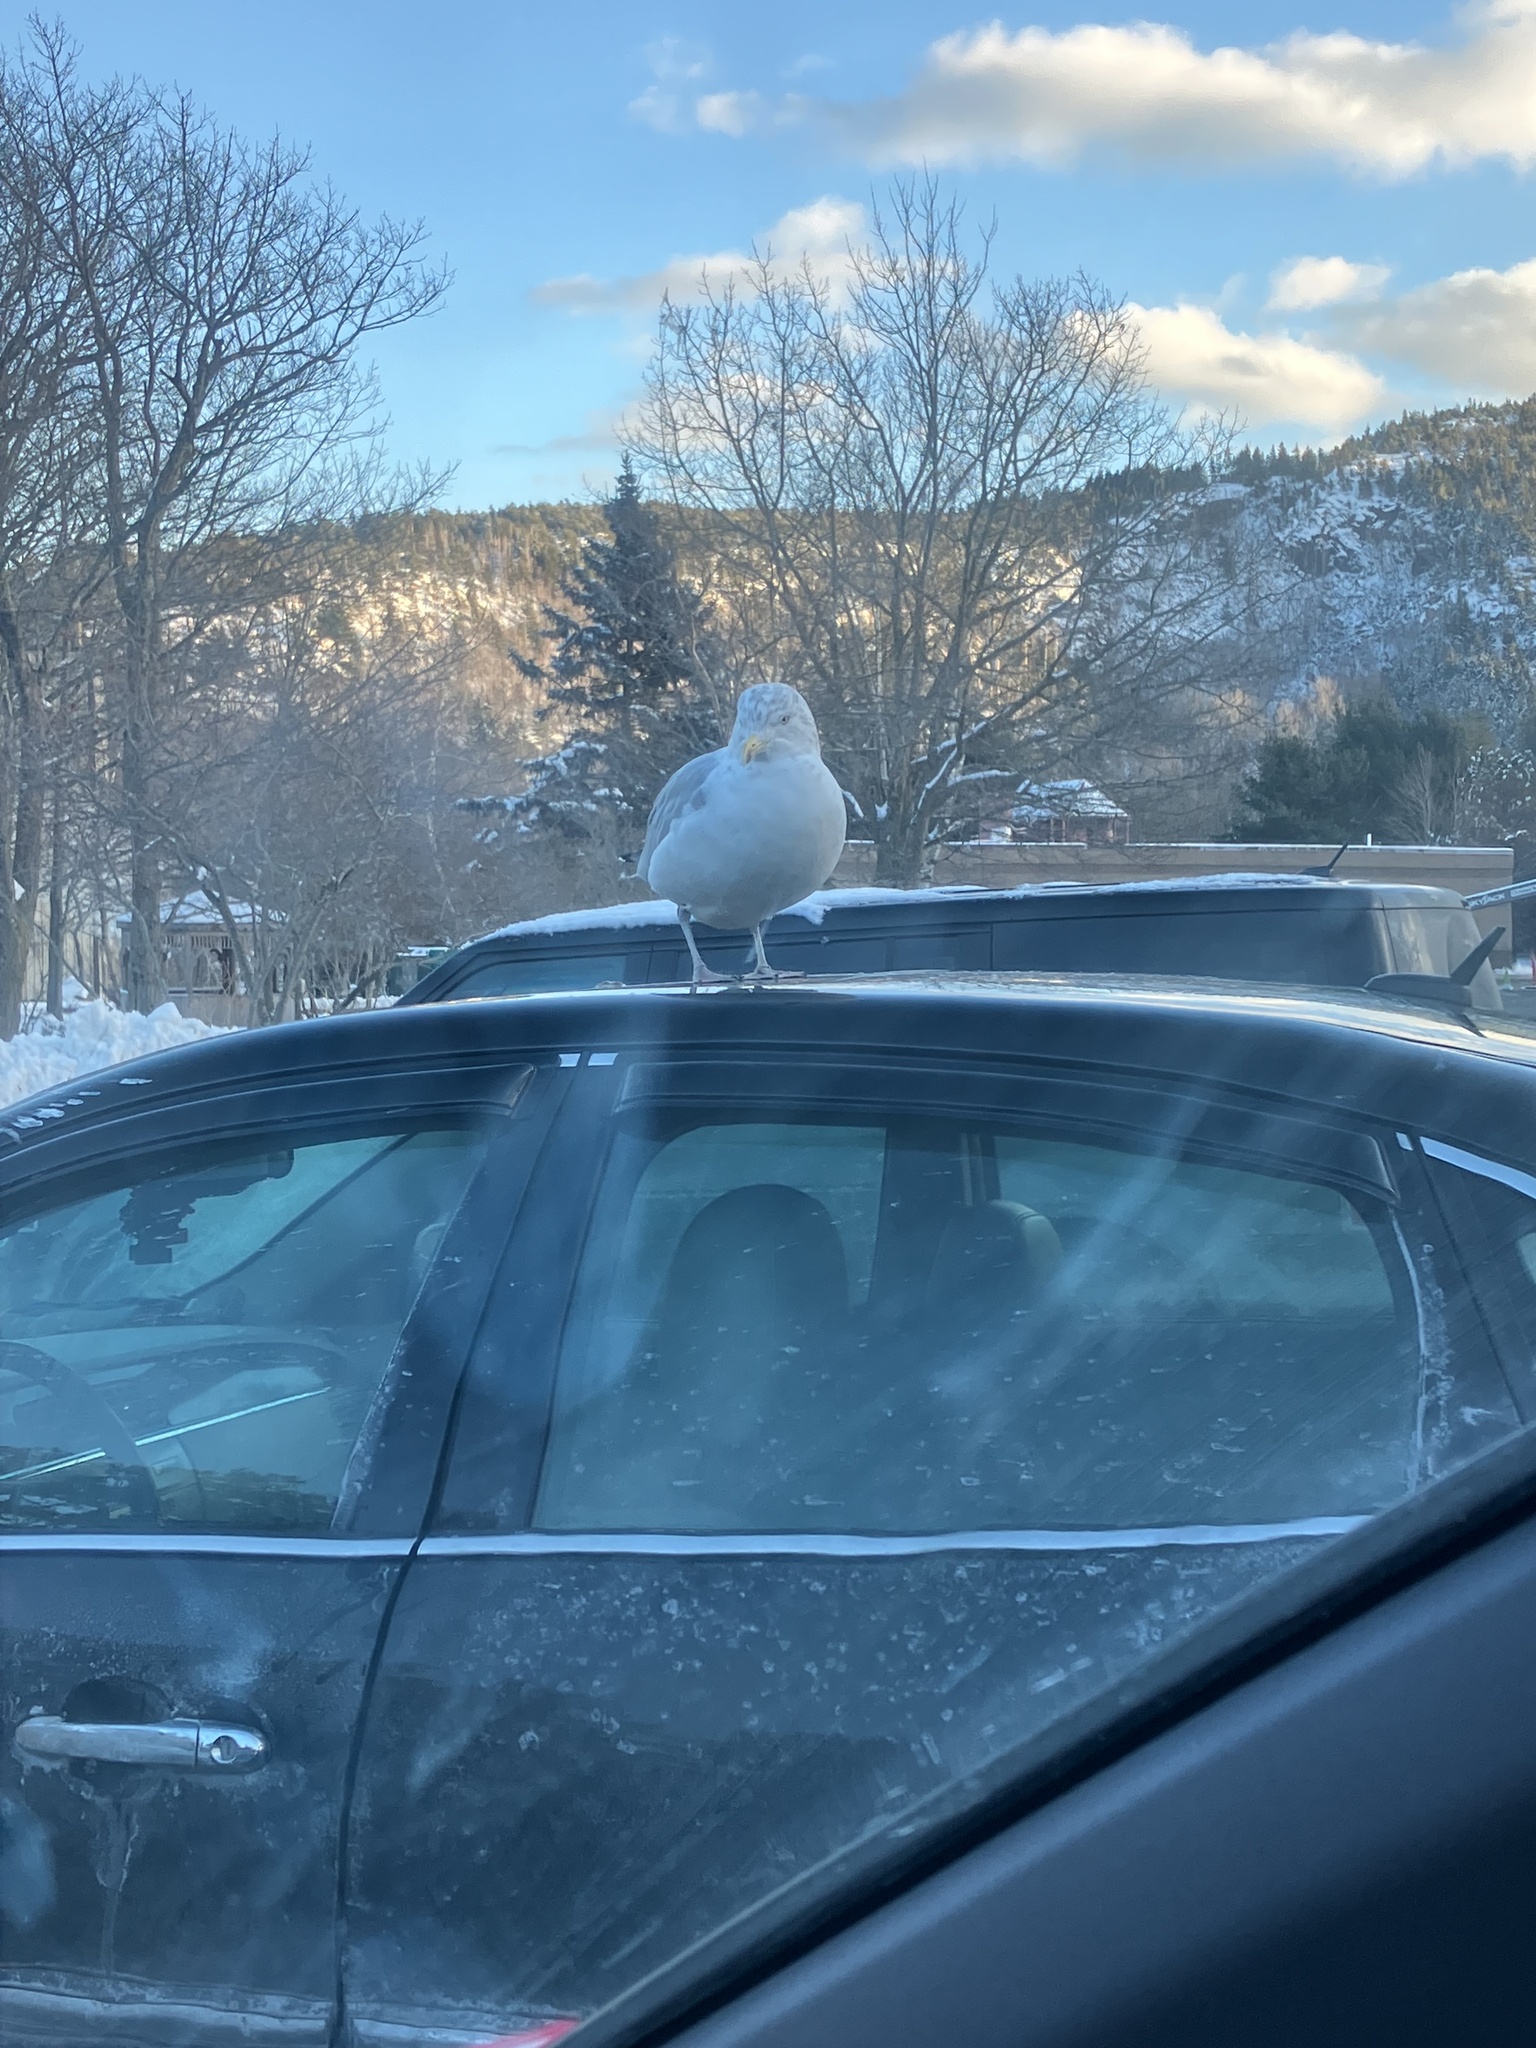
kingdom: Animalia
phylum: Chordata
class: Aves
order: Charadriiformes
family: Laridae
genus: Larus
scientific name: Larus argentatus
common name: Herring gull
